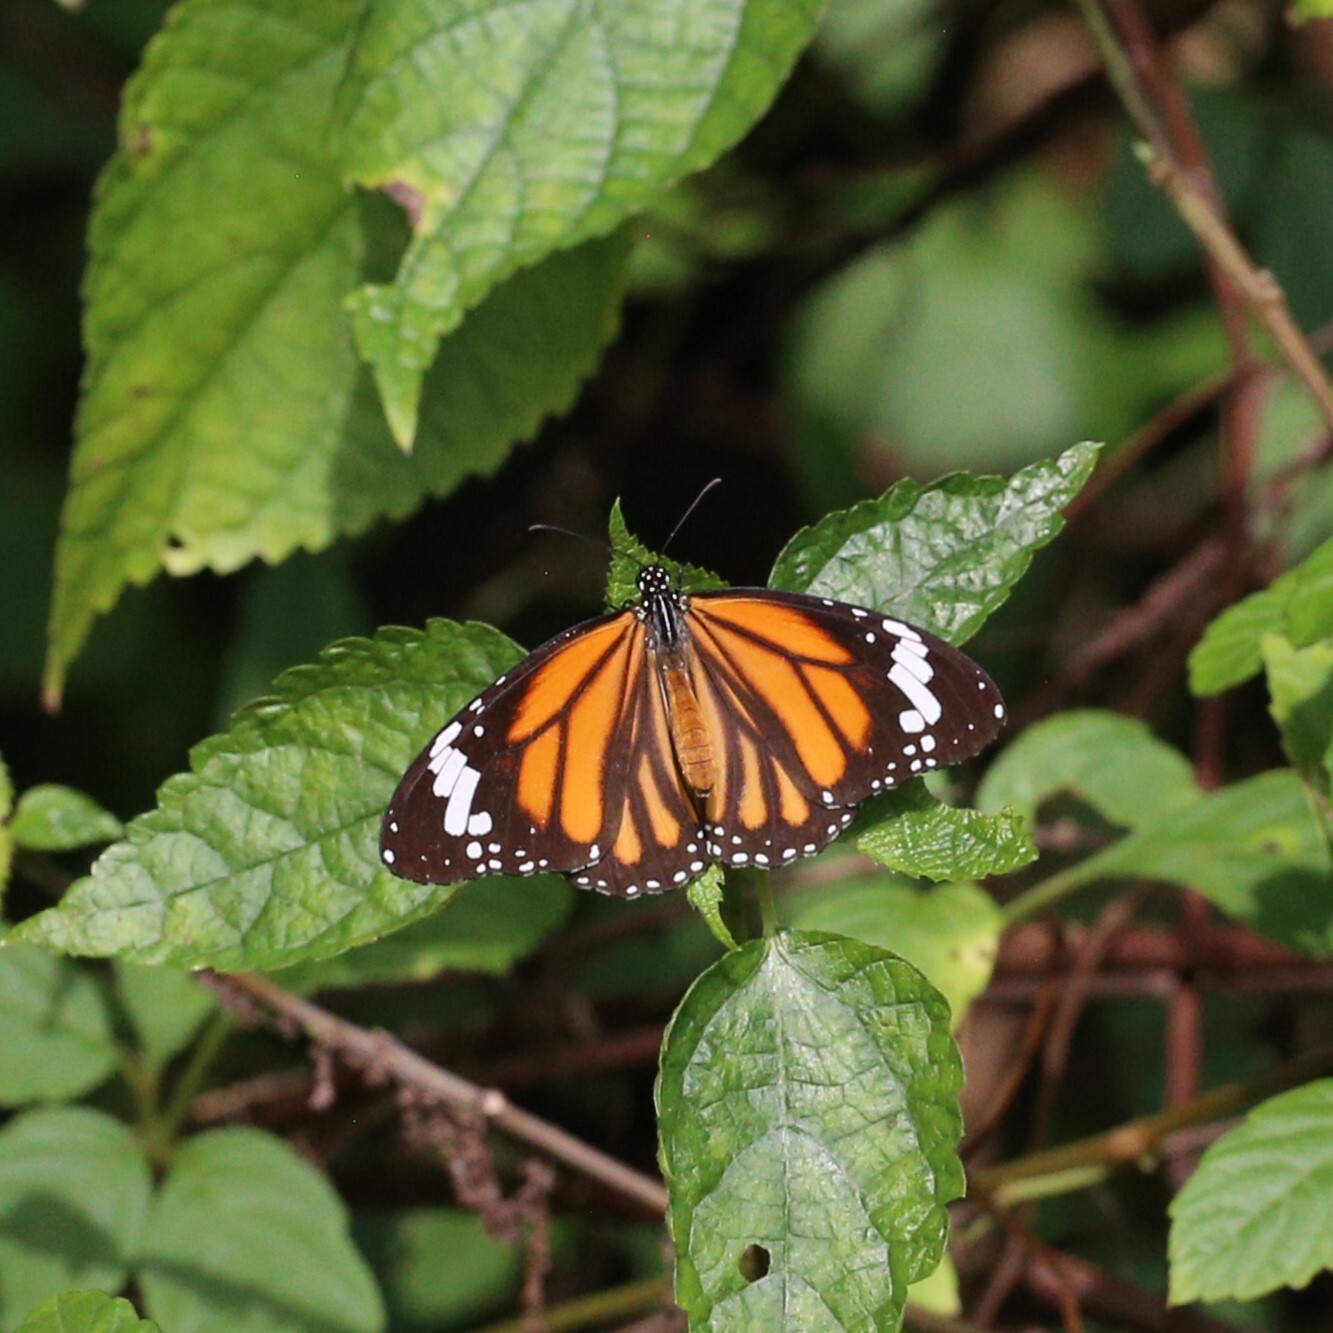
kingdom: Animalia
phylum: Arthropoda
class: Insecta
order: Lepidoptera
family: Nymphalidae
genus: Danaus
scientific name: Danaus genutia
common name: Common tiger butterfly
